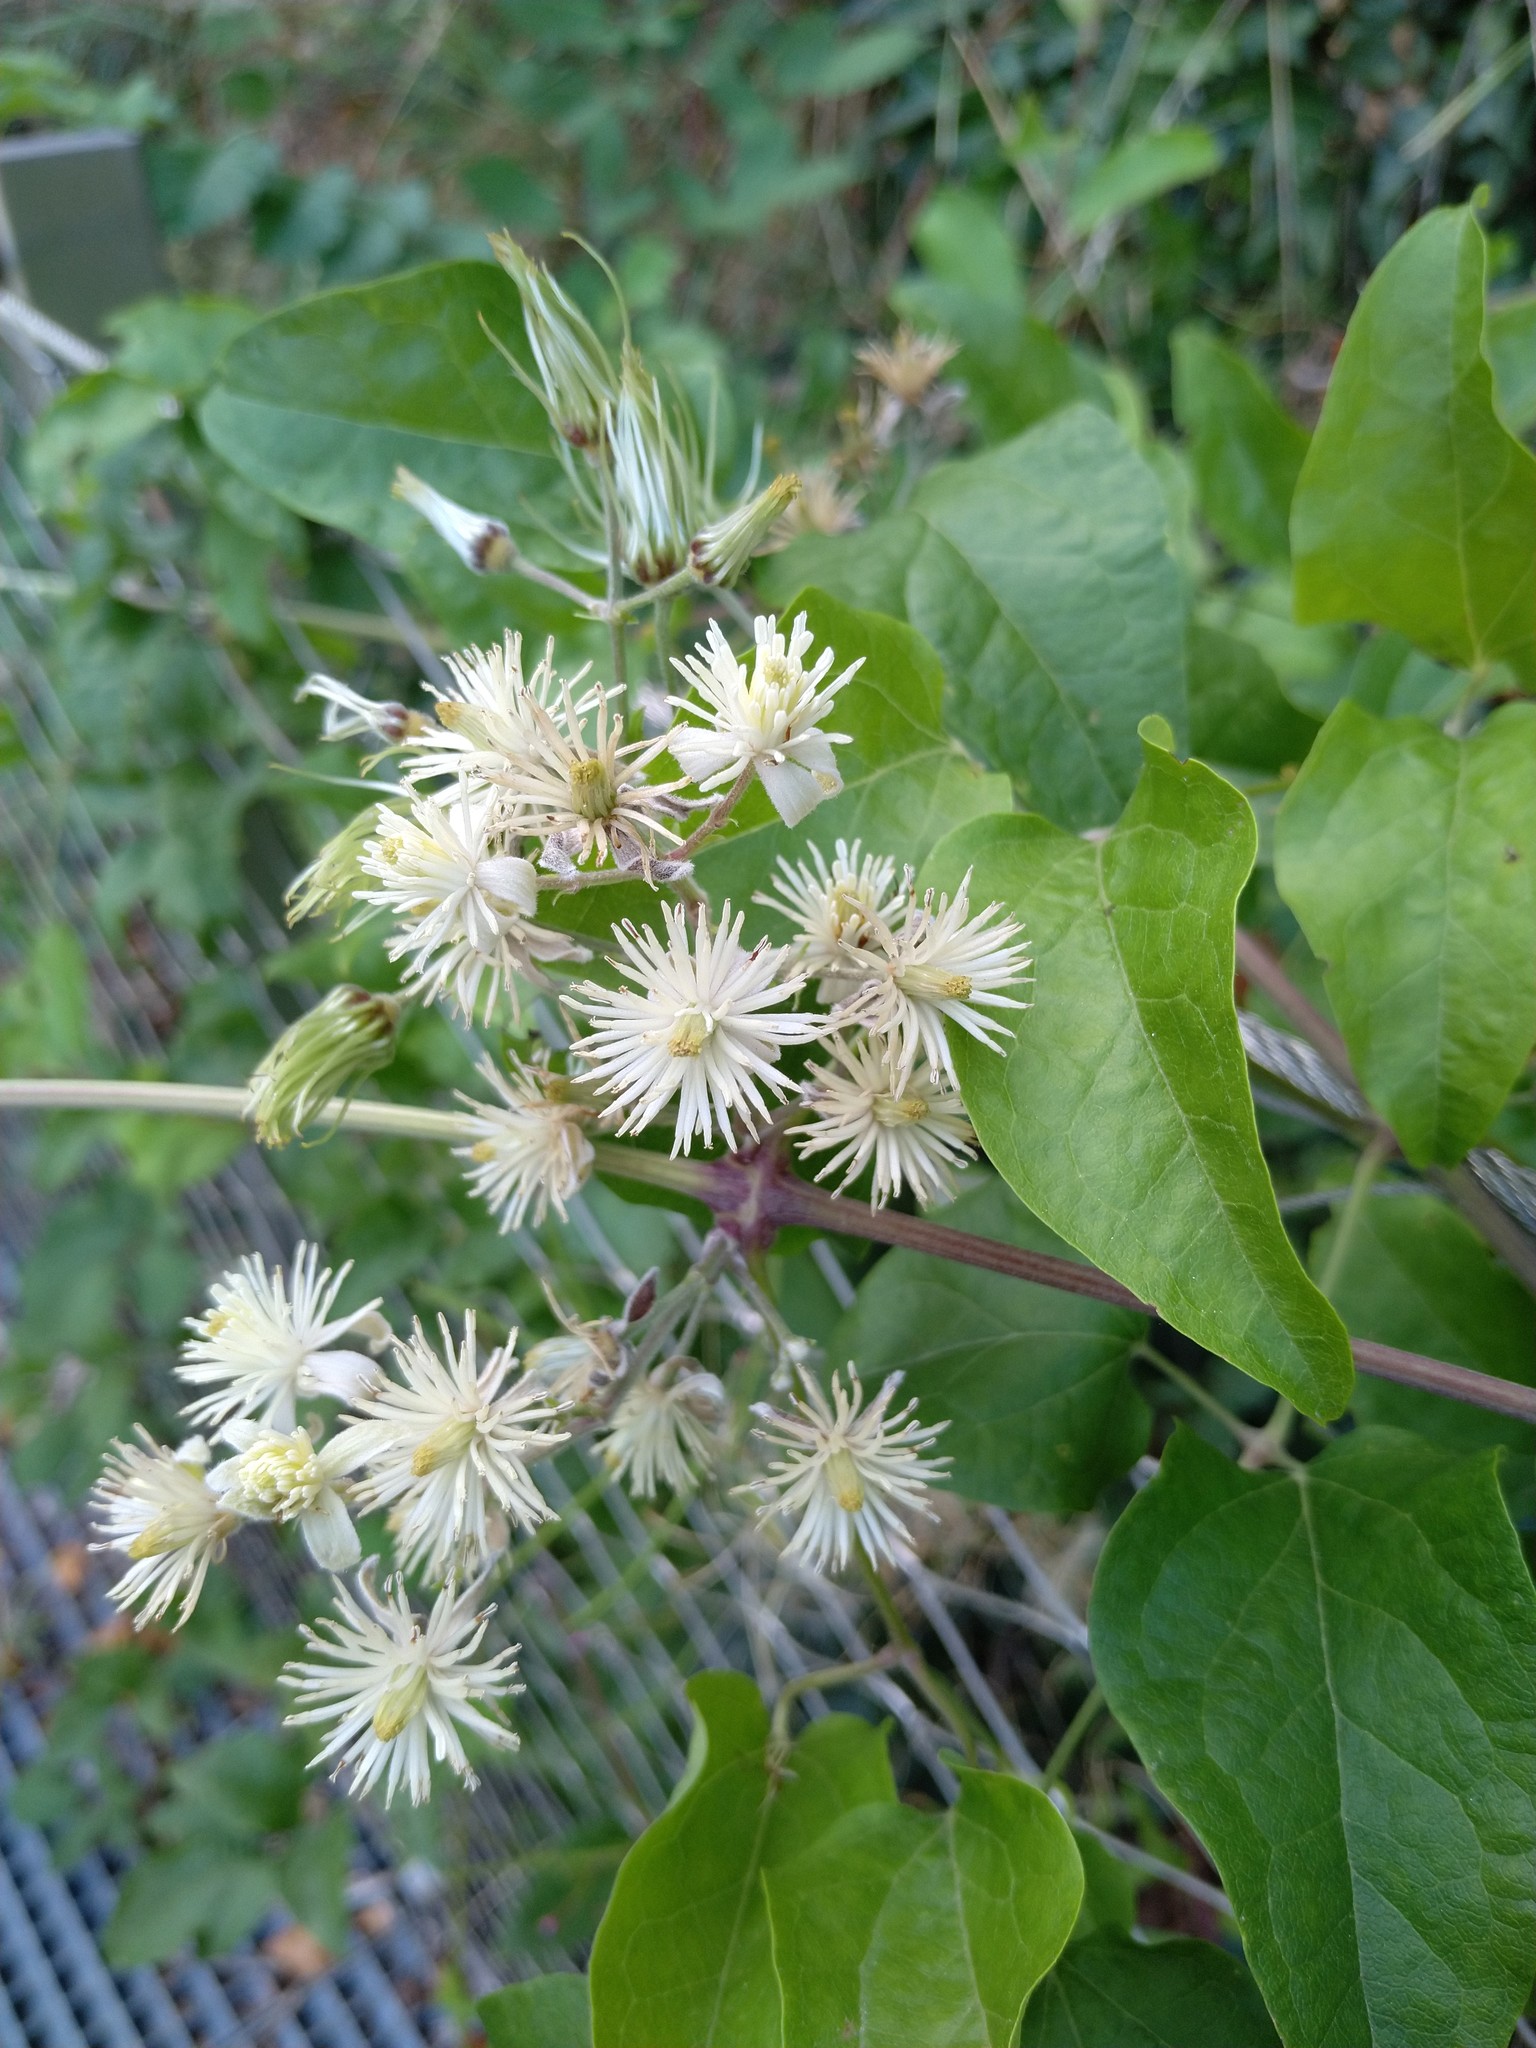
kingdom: Plantae
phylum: Tracheophyta
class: Magnoliopsida
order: Ranunculales
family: Ranunculaceae
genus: Clematis
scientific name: Clematis vitalba
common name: Evergreen clematis
